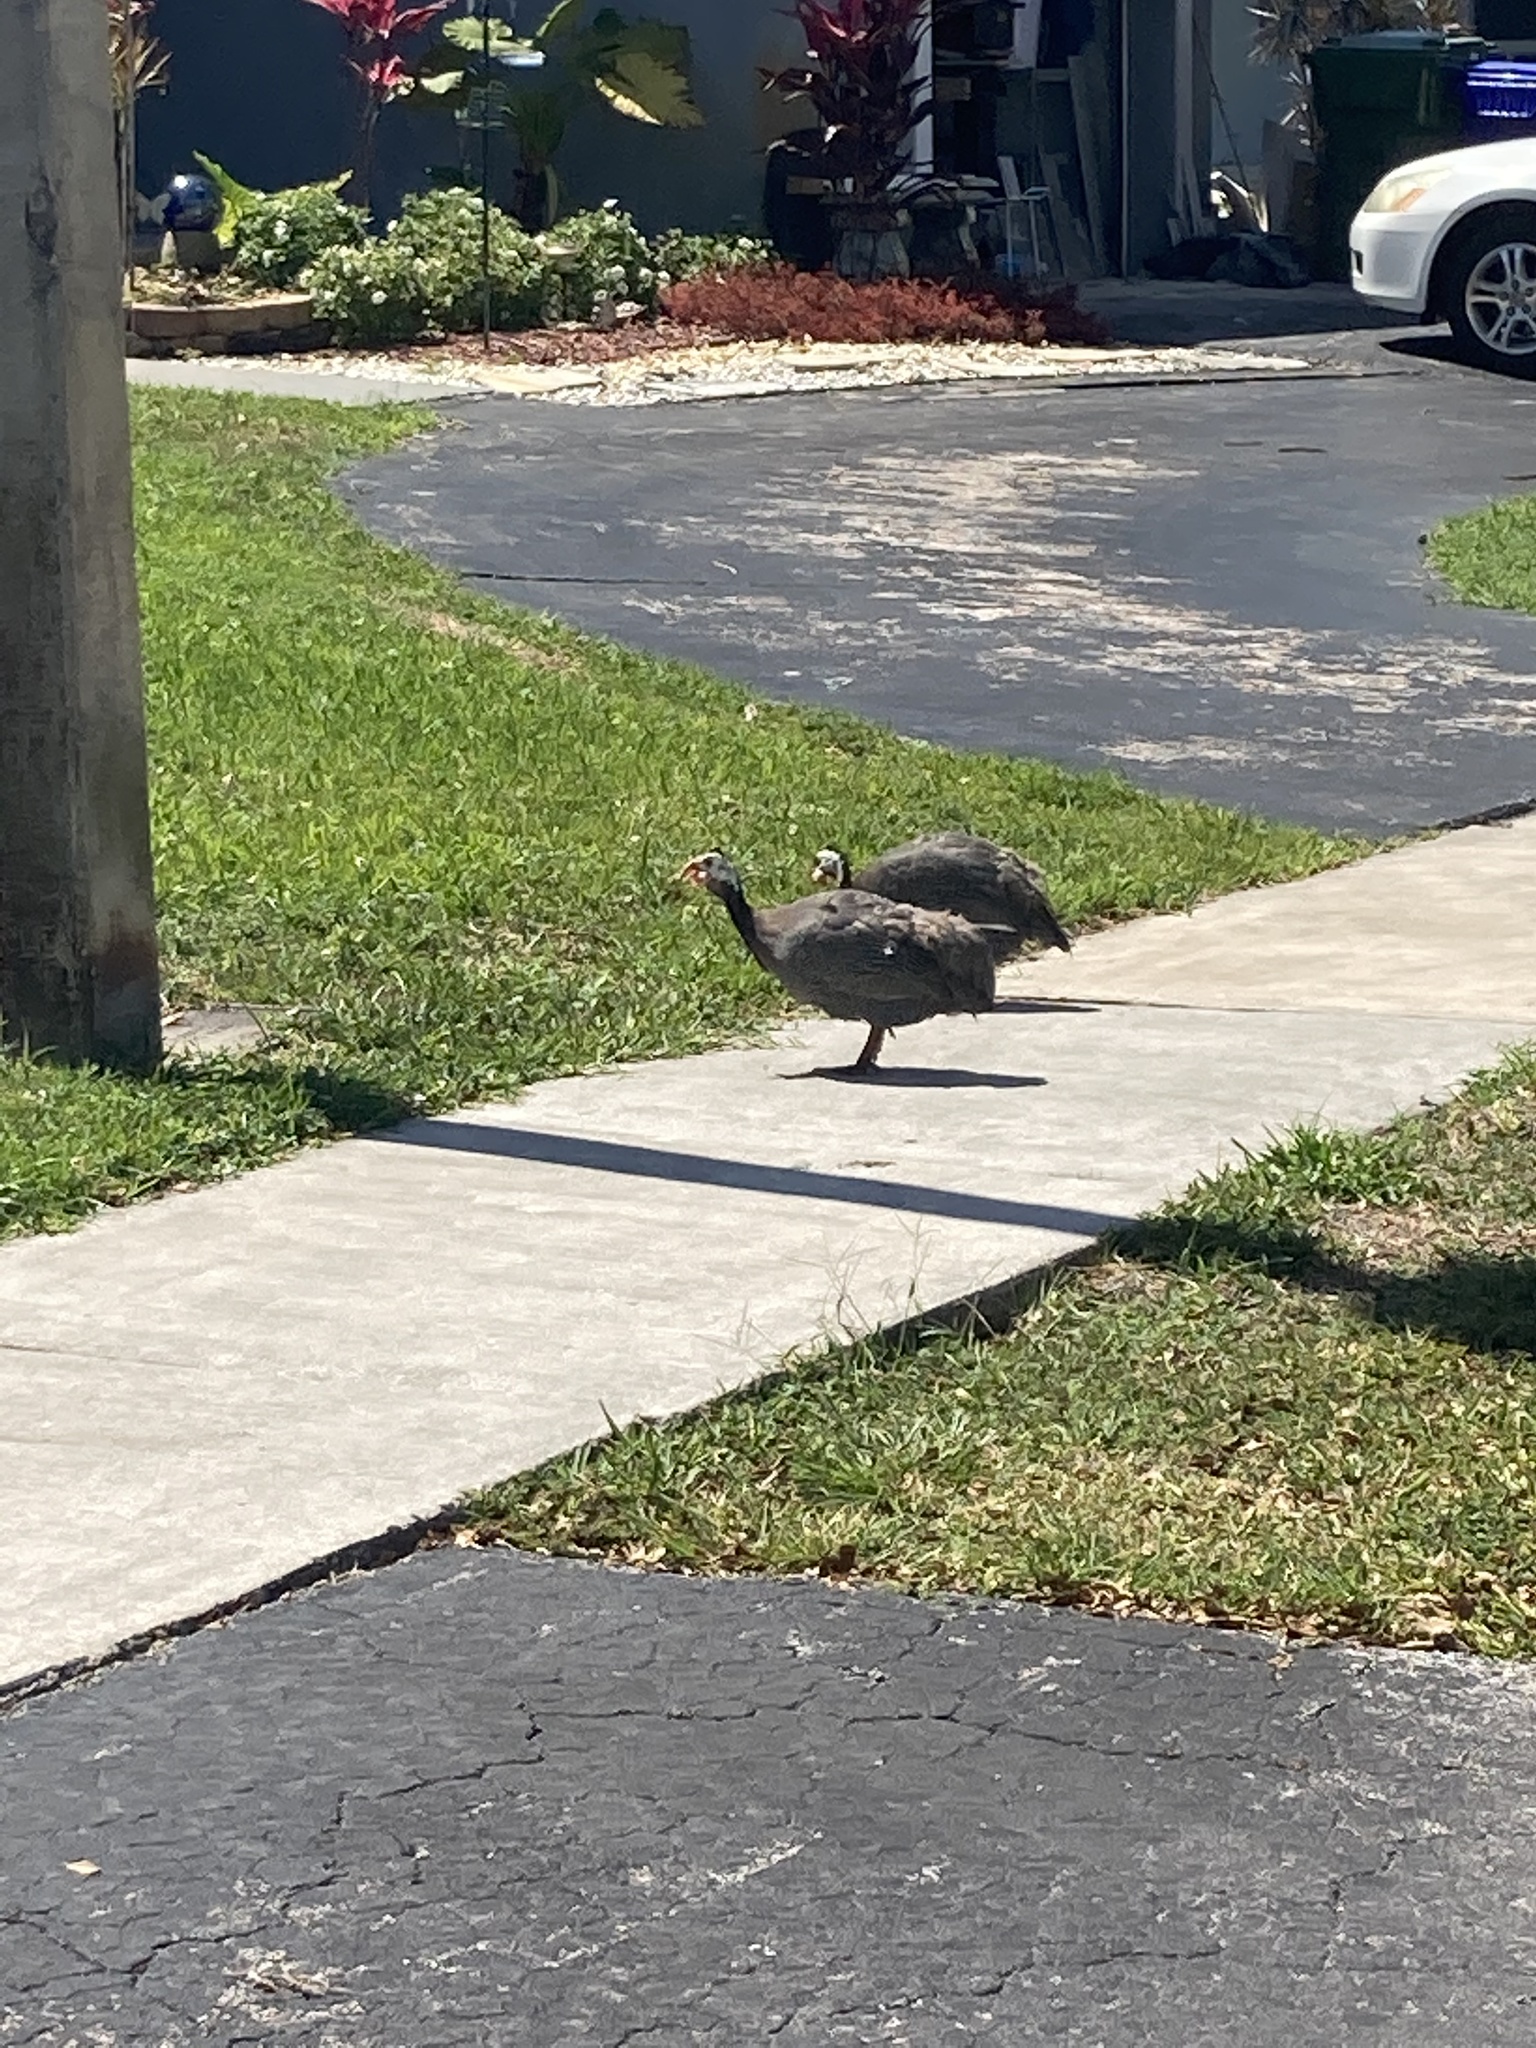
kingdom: Animalia
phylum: Chordata
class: Aves
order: Galliformes
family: Numididae
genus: Numida
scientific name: Numida meleagris
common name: Helmeted guineafowl
